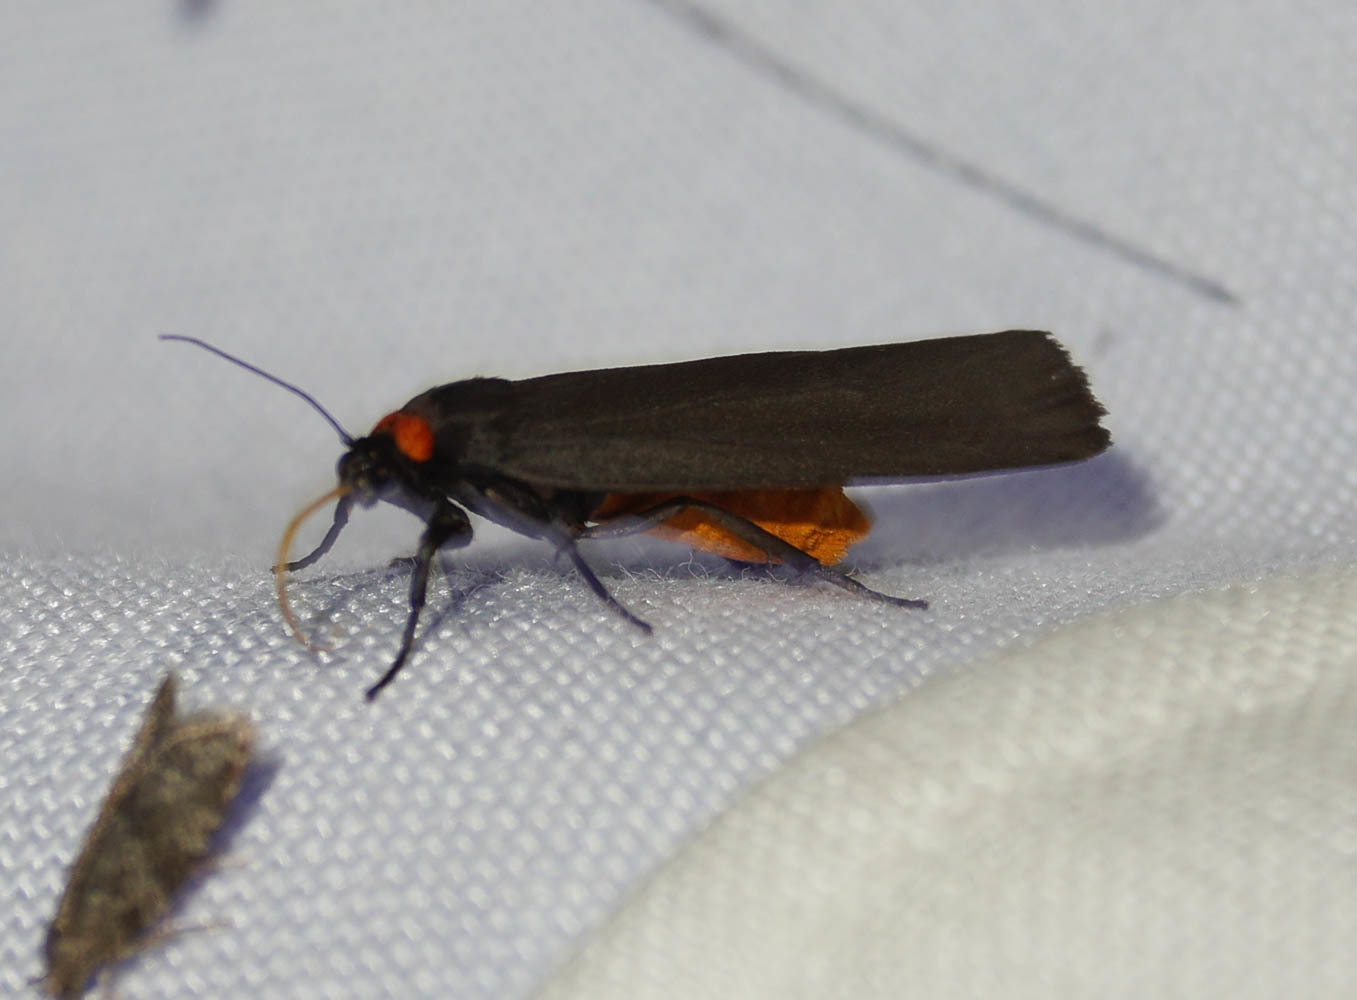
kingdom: Animalia
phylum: Arthropoda
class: Insecta
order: Lepidoptera
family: Erebidae
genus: Atolmis
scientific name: Atolmis rubricollis
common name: Red-necked footman
